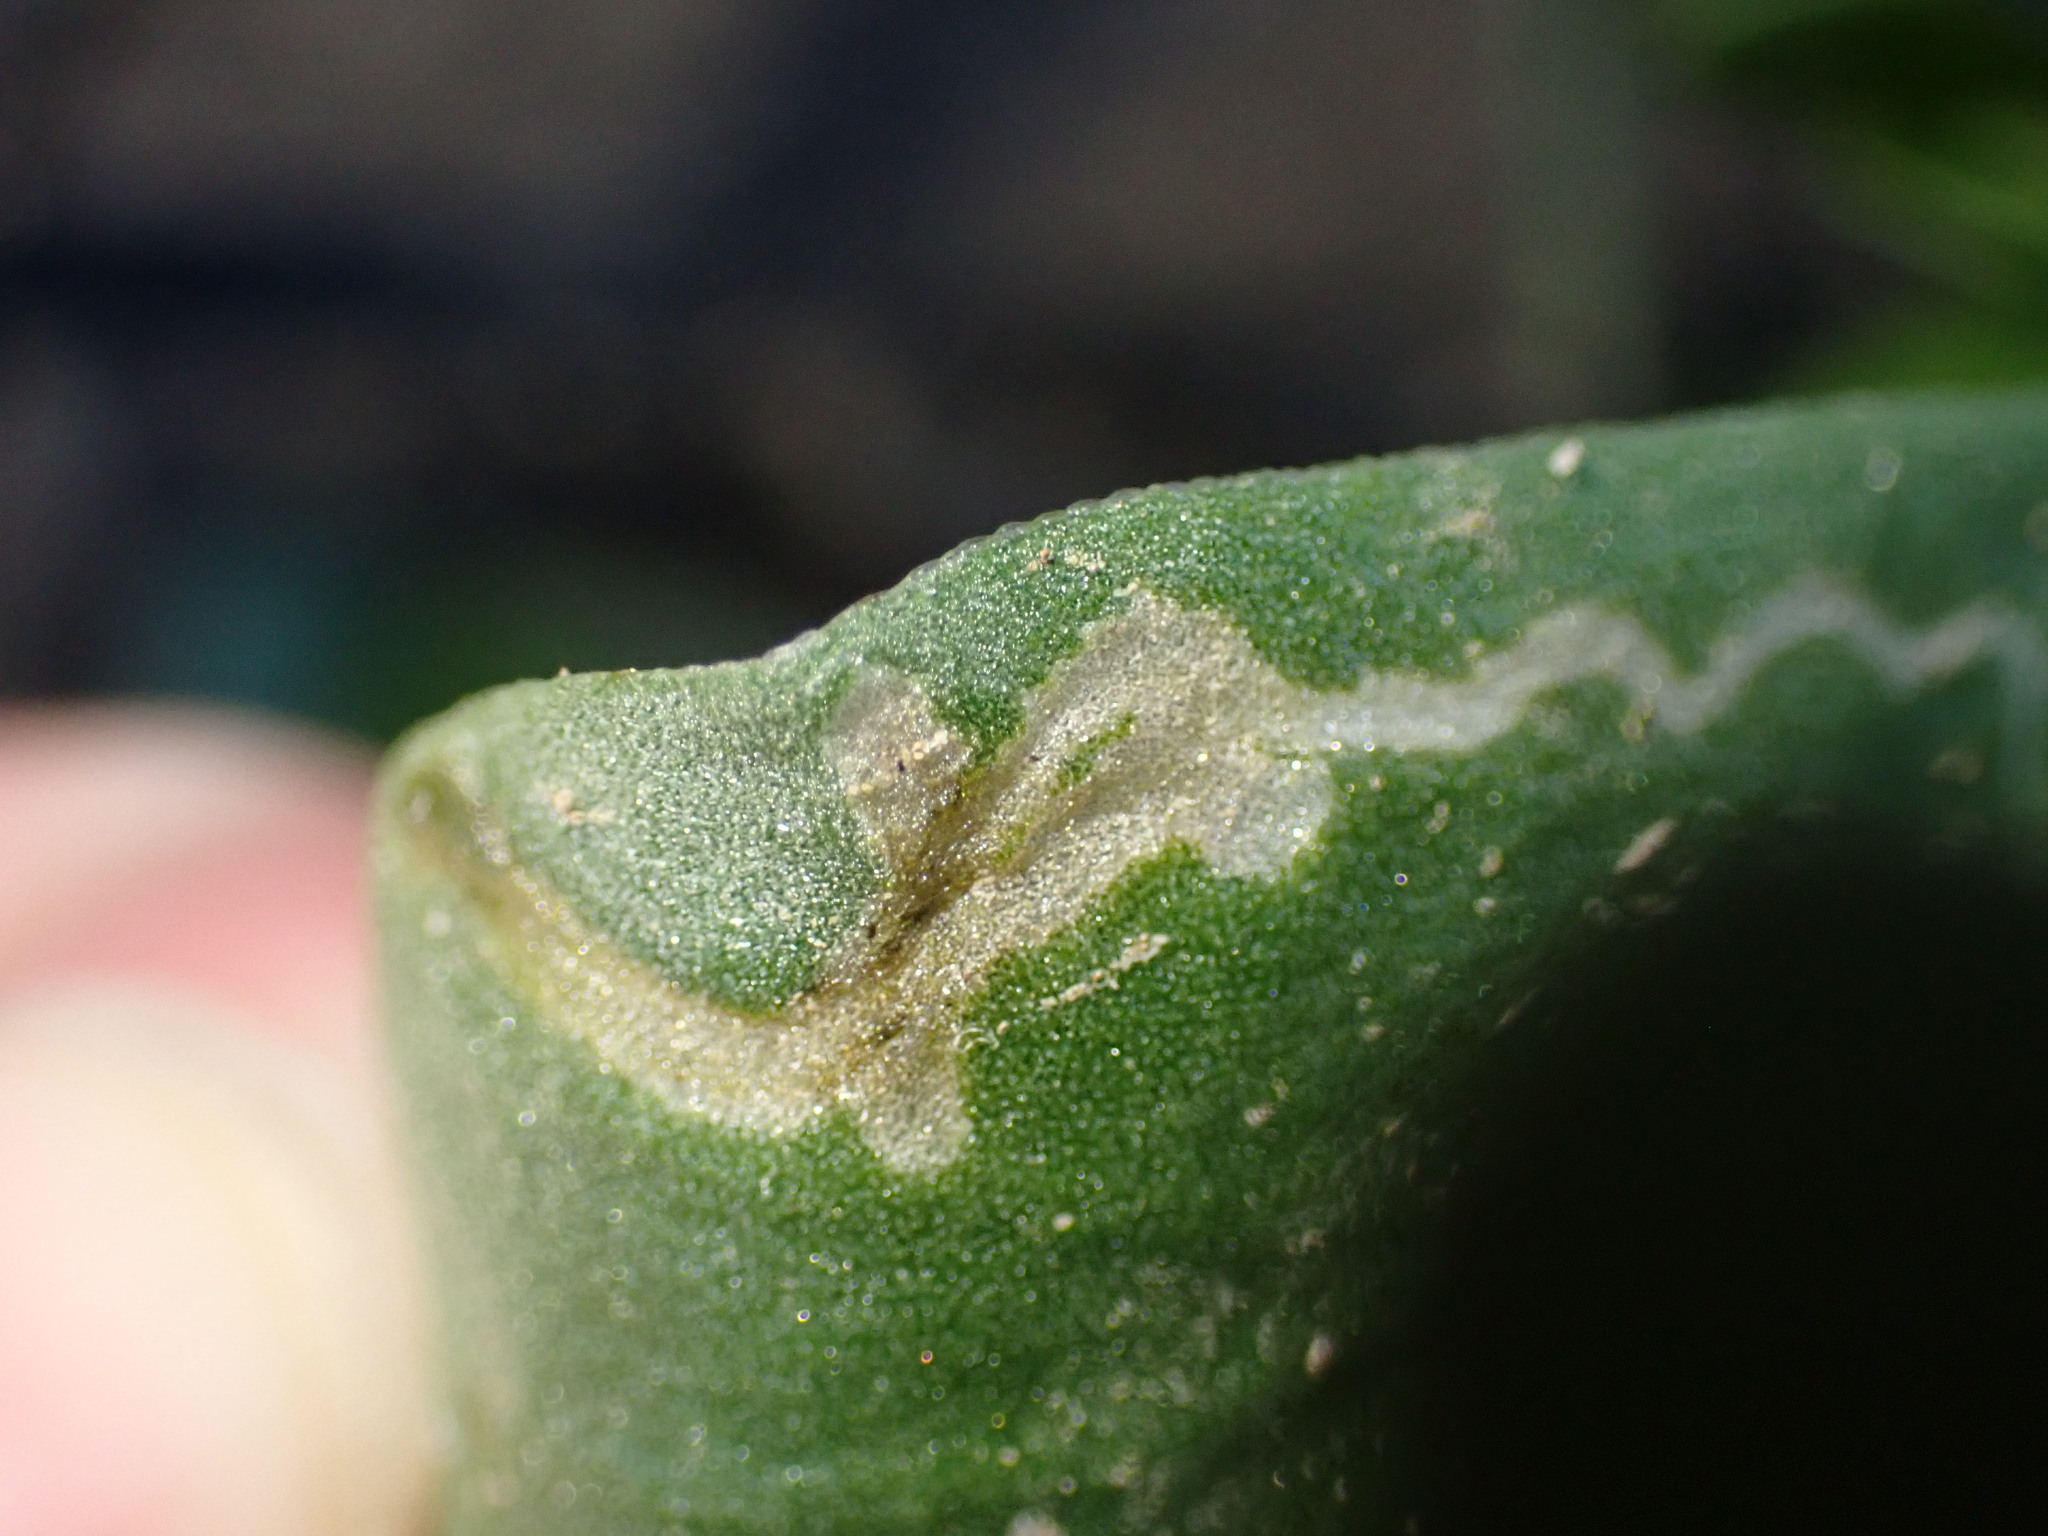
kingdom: Animalia
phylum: Arthropoda
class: Insecta
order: Diptera
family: Anthomyiidae
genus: Pegomya
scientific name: Pegomya rufescens
